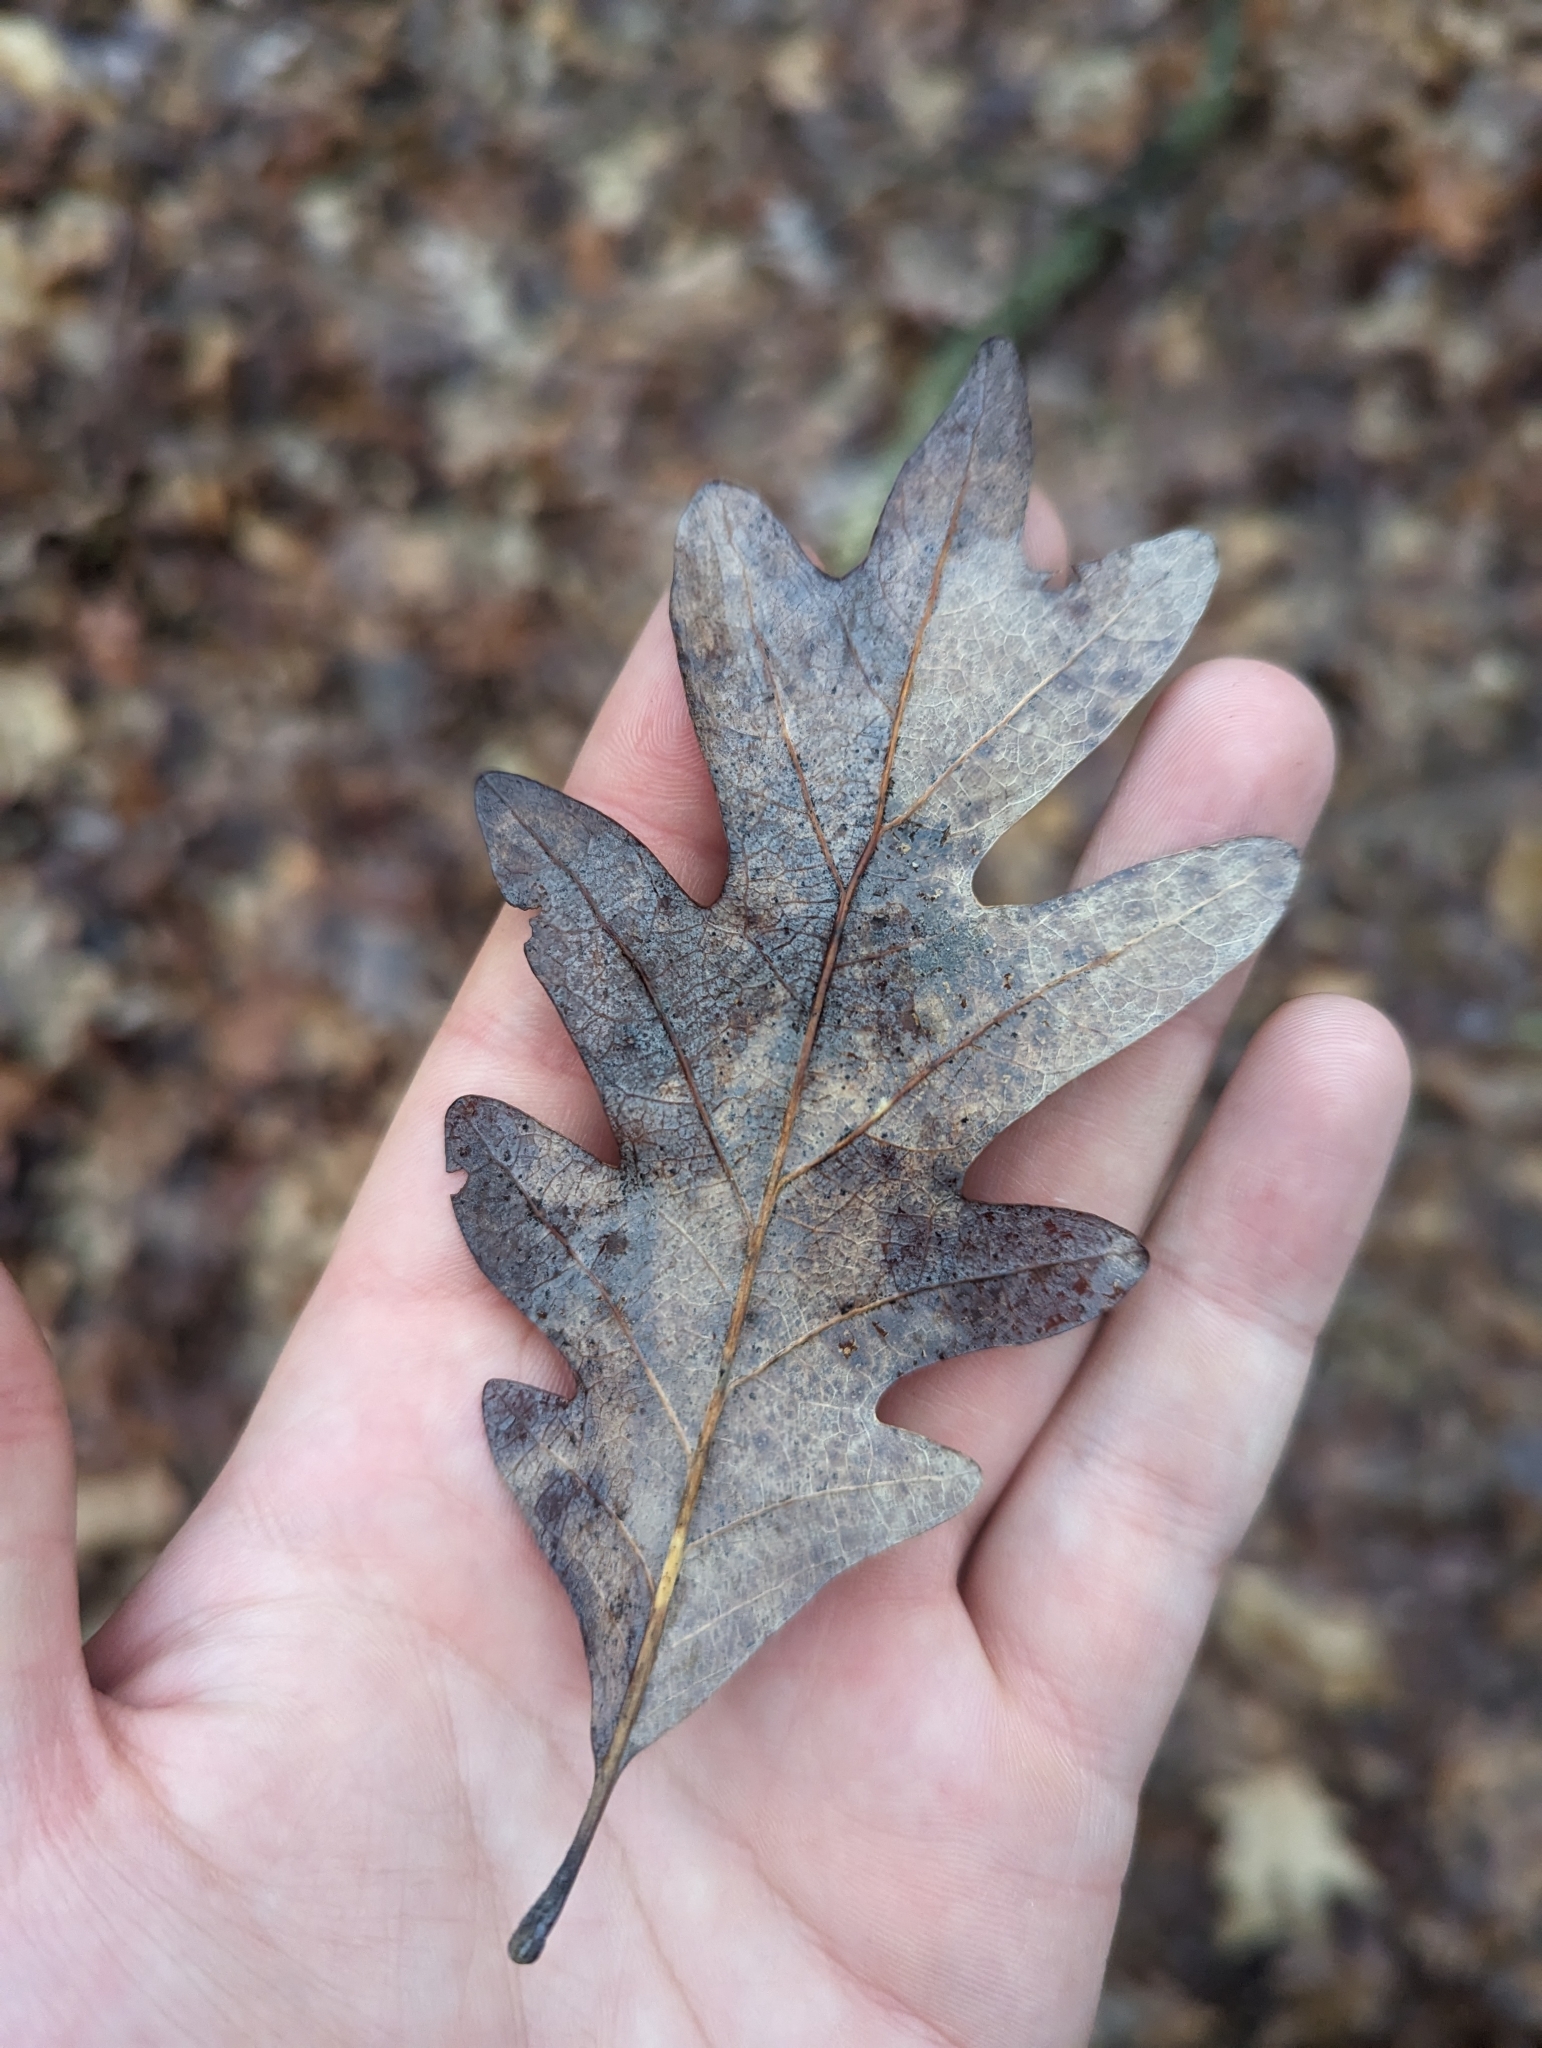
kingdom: Plantae
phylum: Tracheophyta
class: Magnoliopsida
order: Fagales
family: Fagaceae
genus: Quercus
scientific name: Quercus alba
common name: White oak
